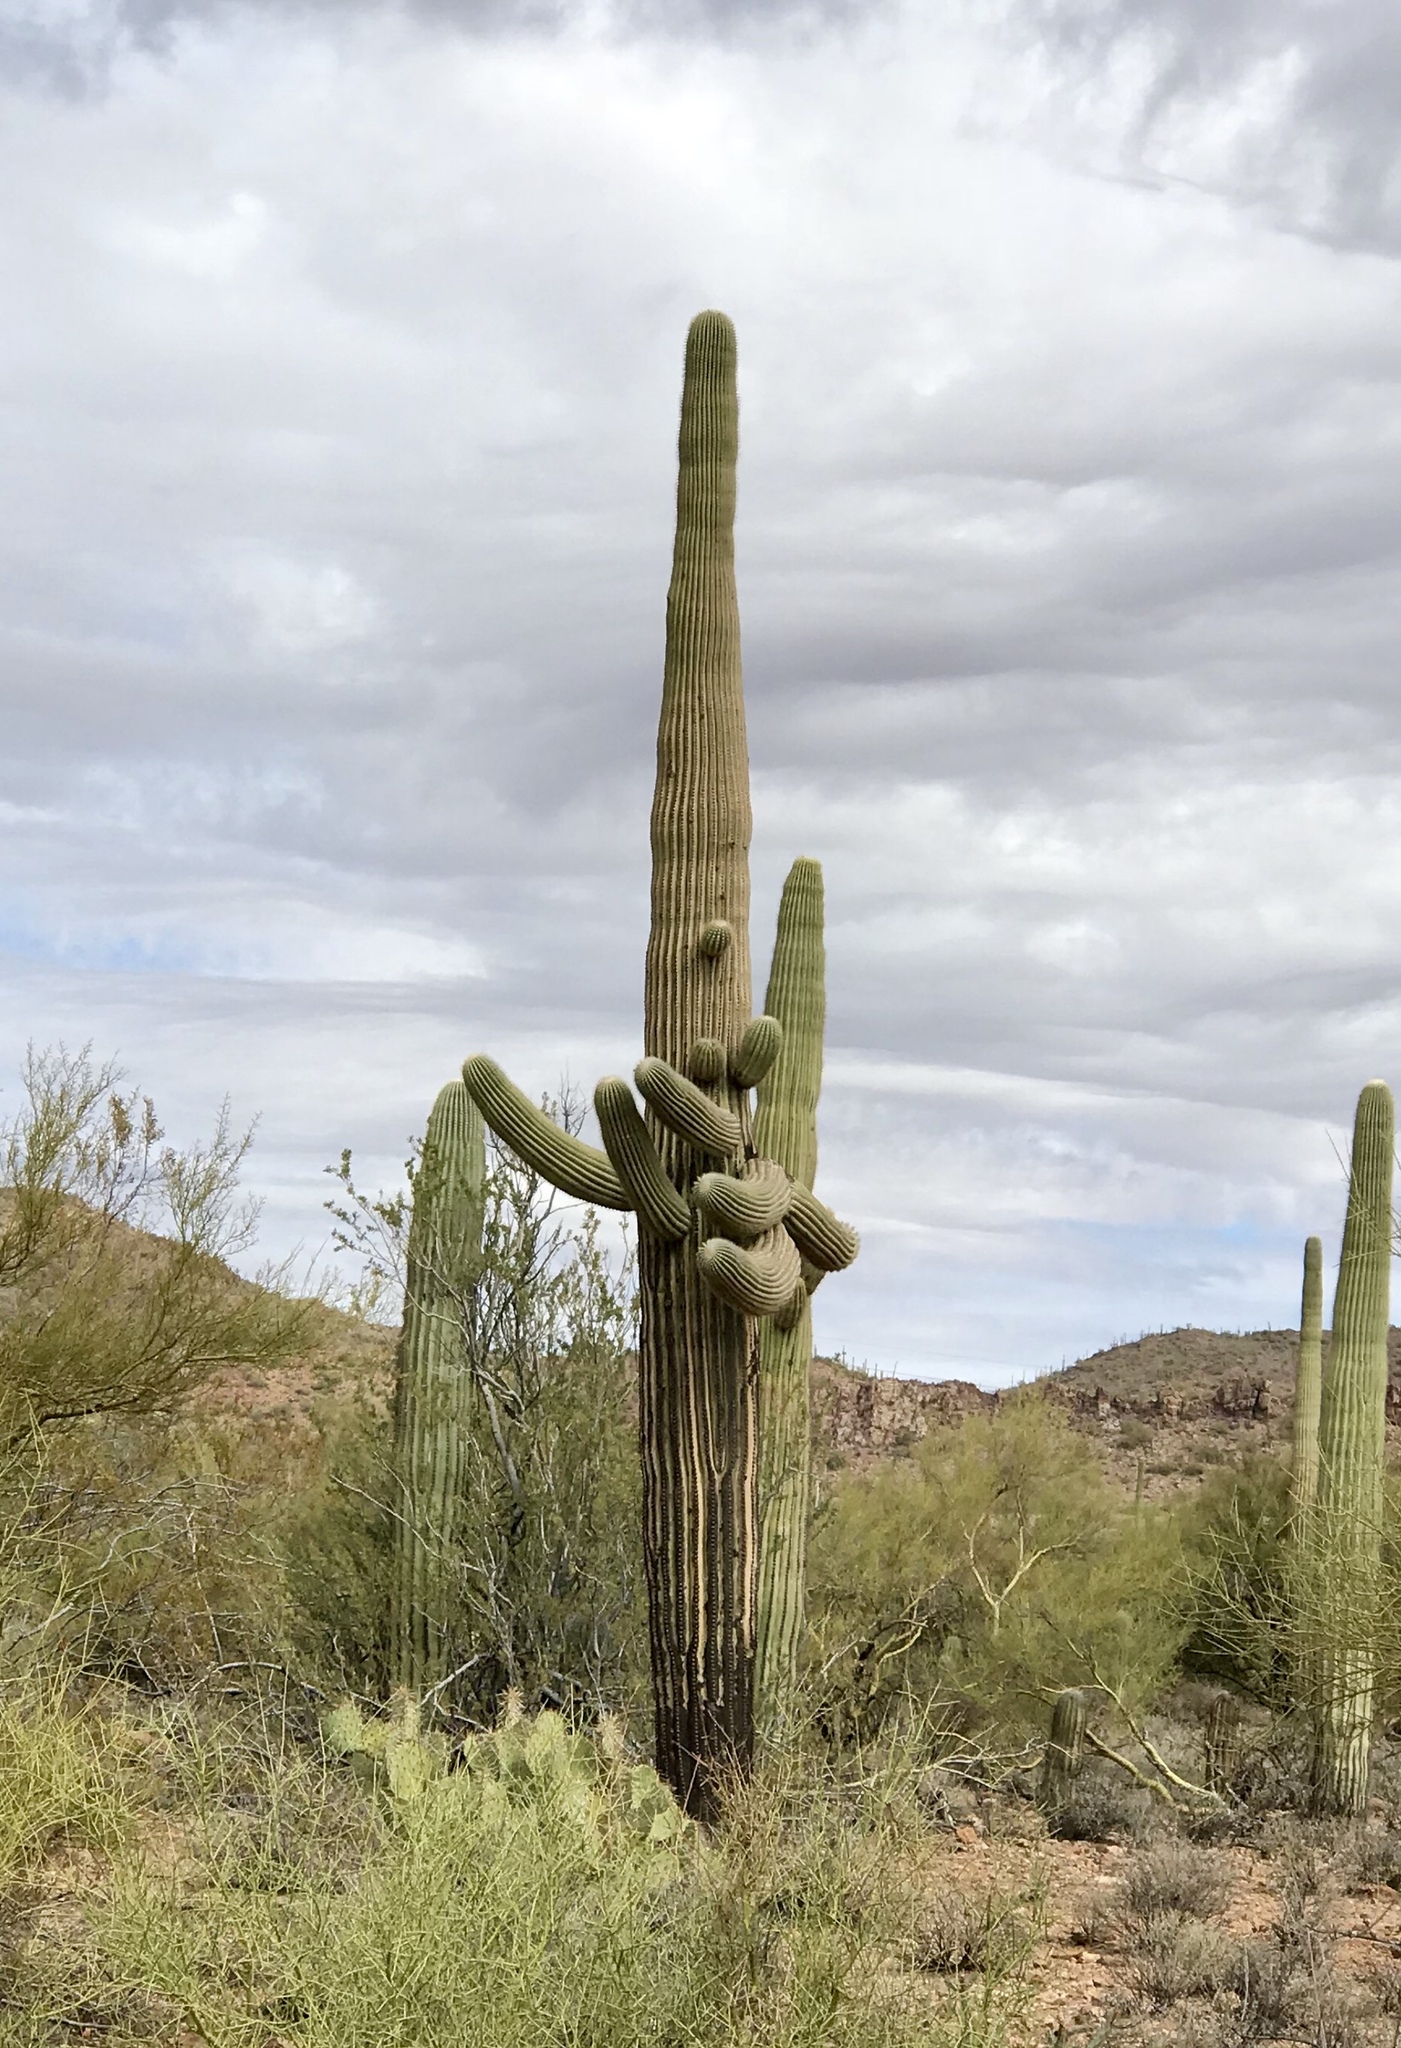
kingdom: Plantae
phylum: Tracheophyta
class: Magnoliopsida
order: Caryophyllales
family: Cactaceae
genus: Carnegiea
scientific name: Carnegiea gigantea
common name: Saguaro
